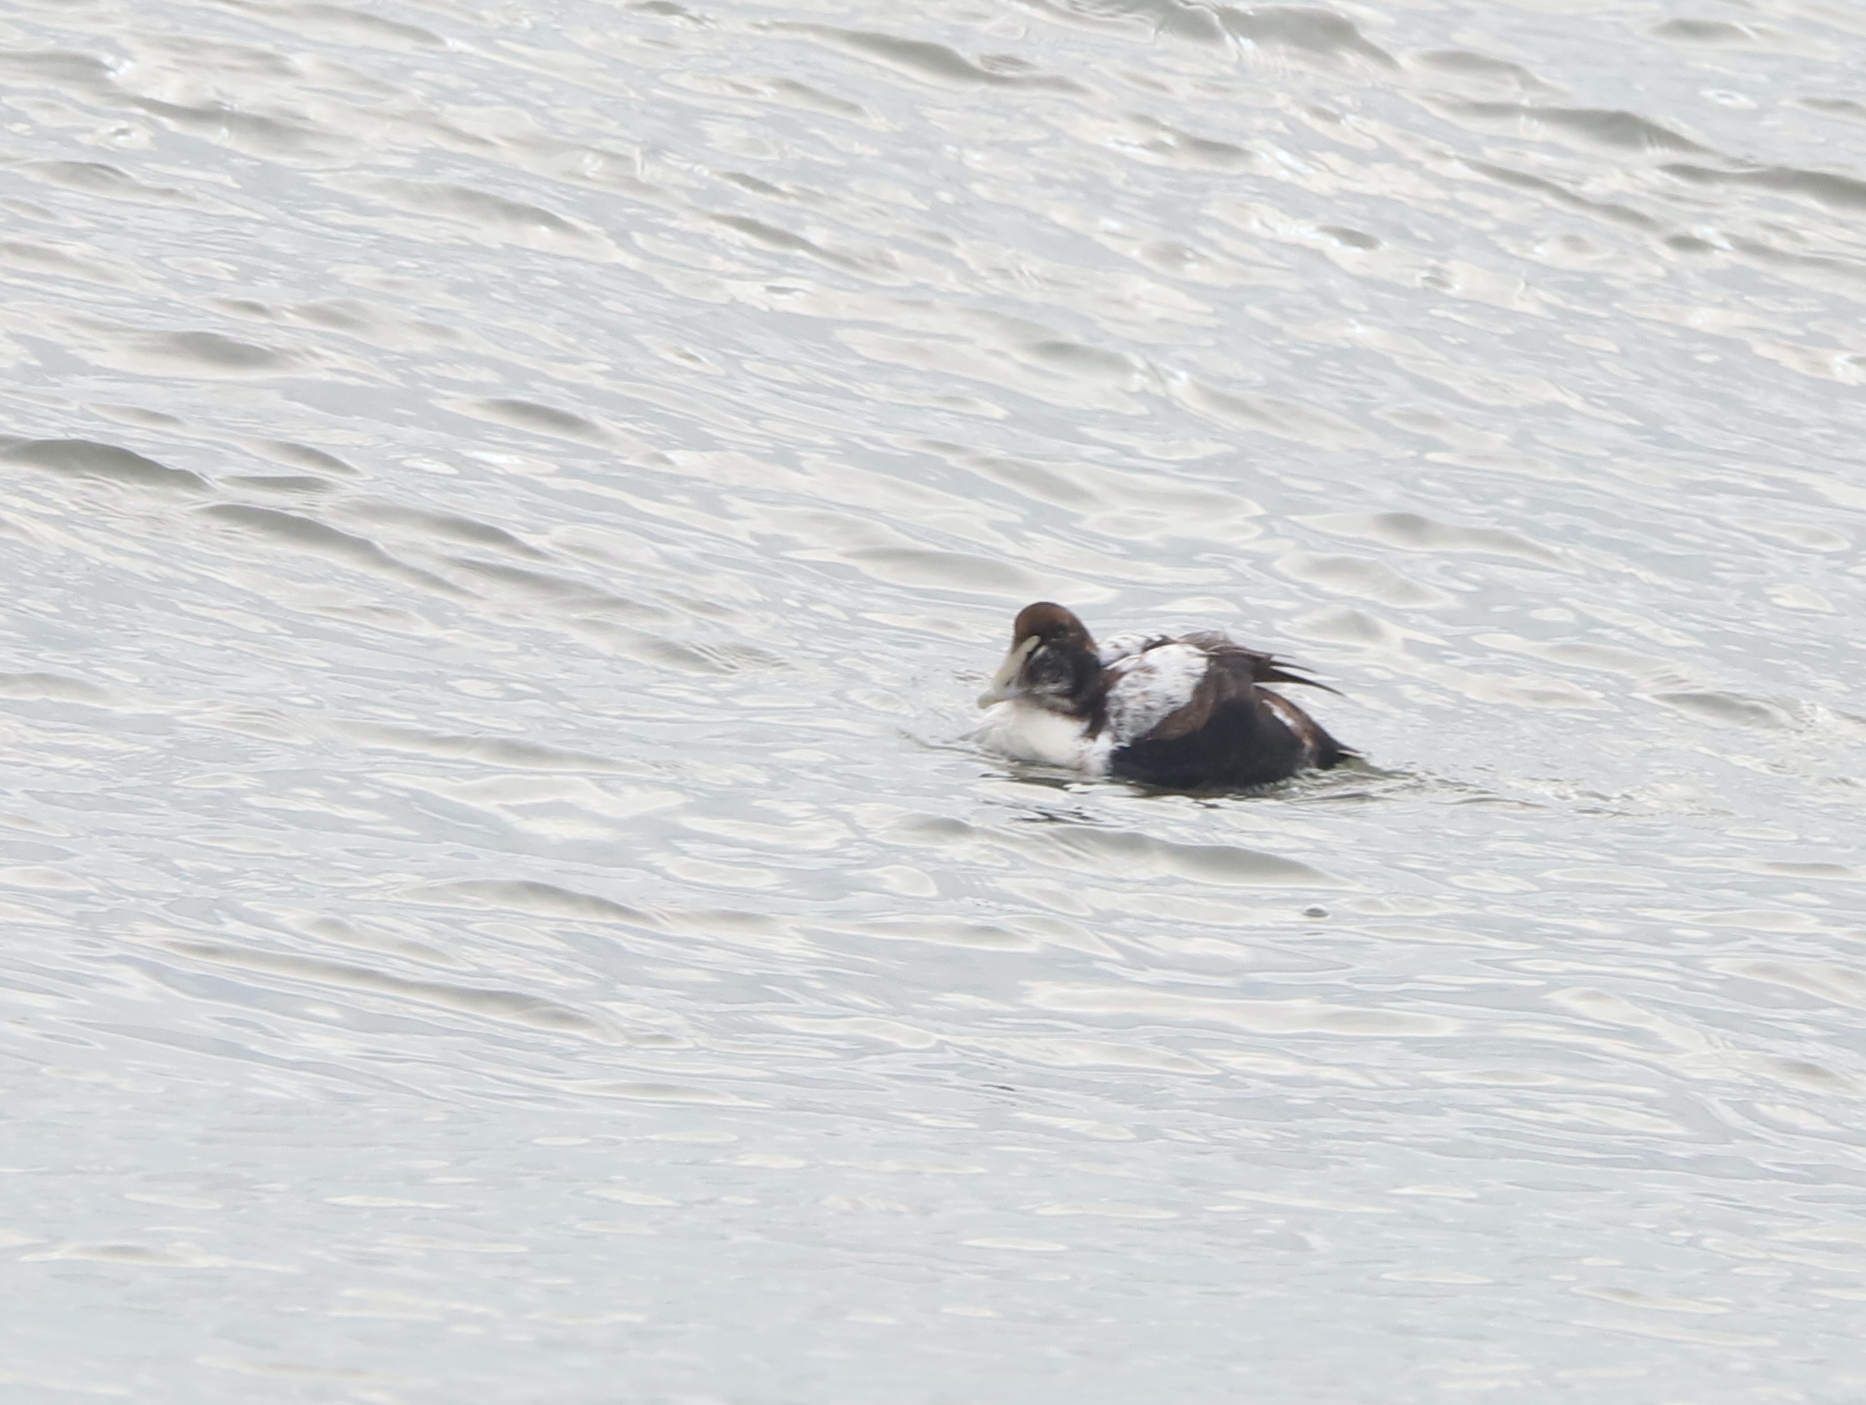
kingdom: Animalia
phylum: Chordata
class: Aves
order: Anseriformes
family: Anatidae
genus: Somateria
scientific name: Somateria mollissima
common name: Common eider
